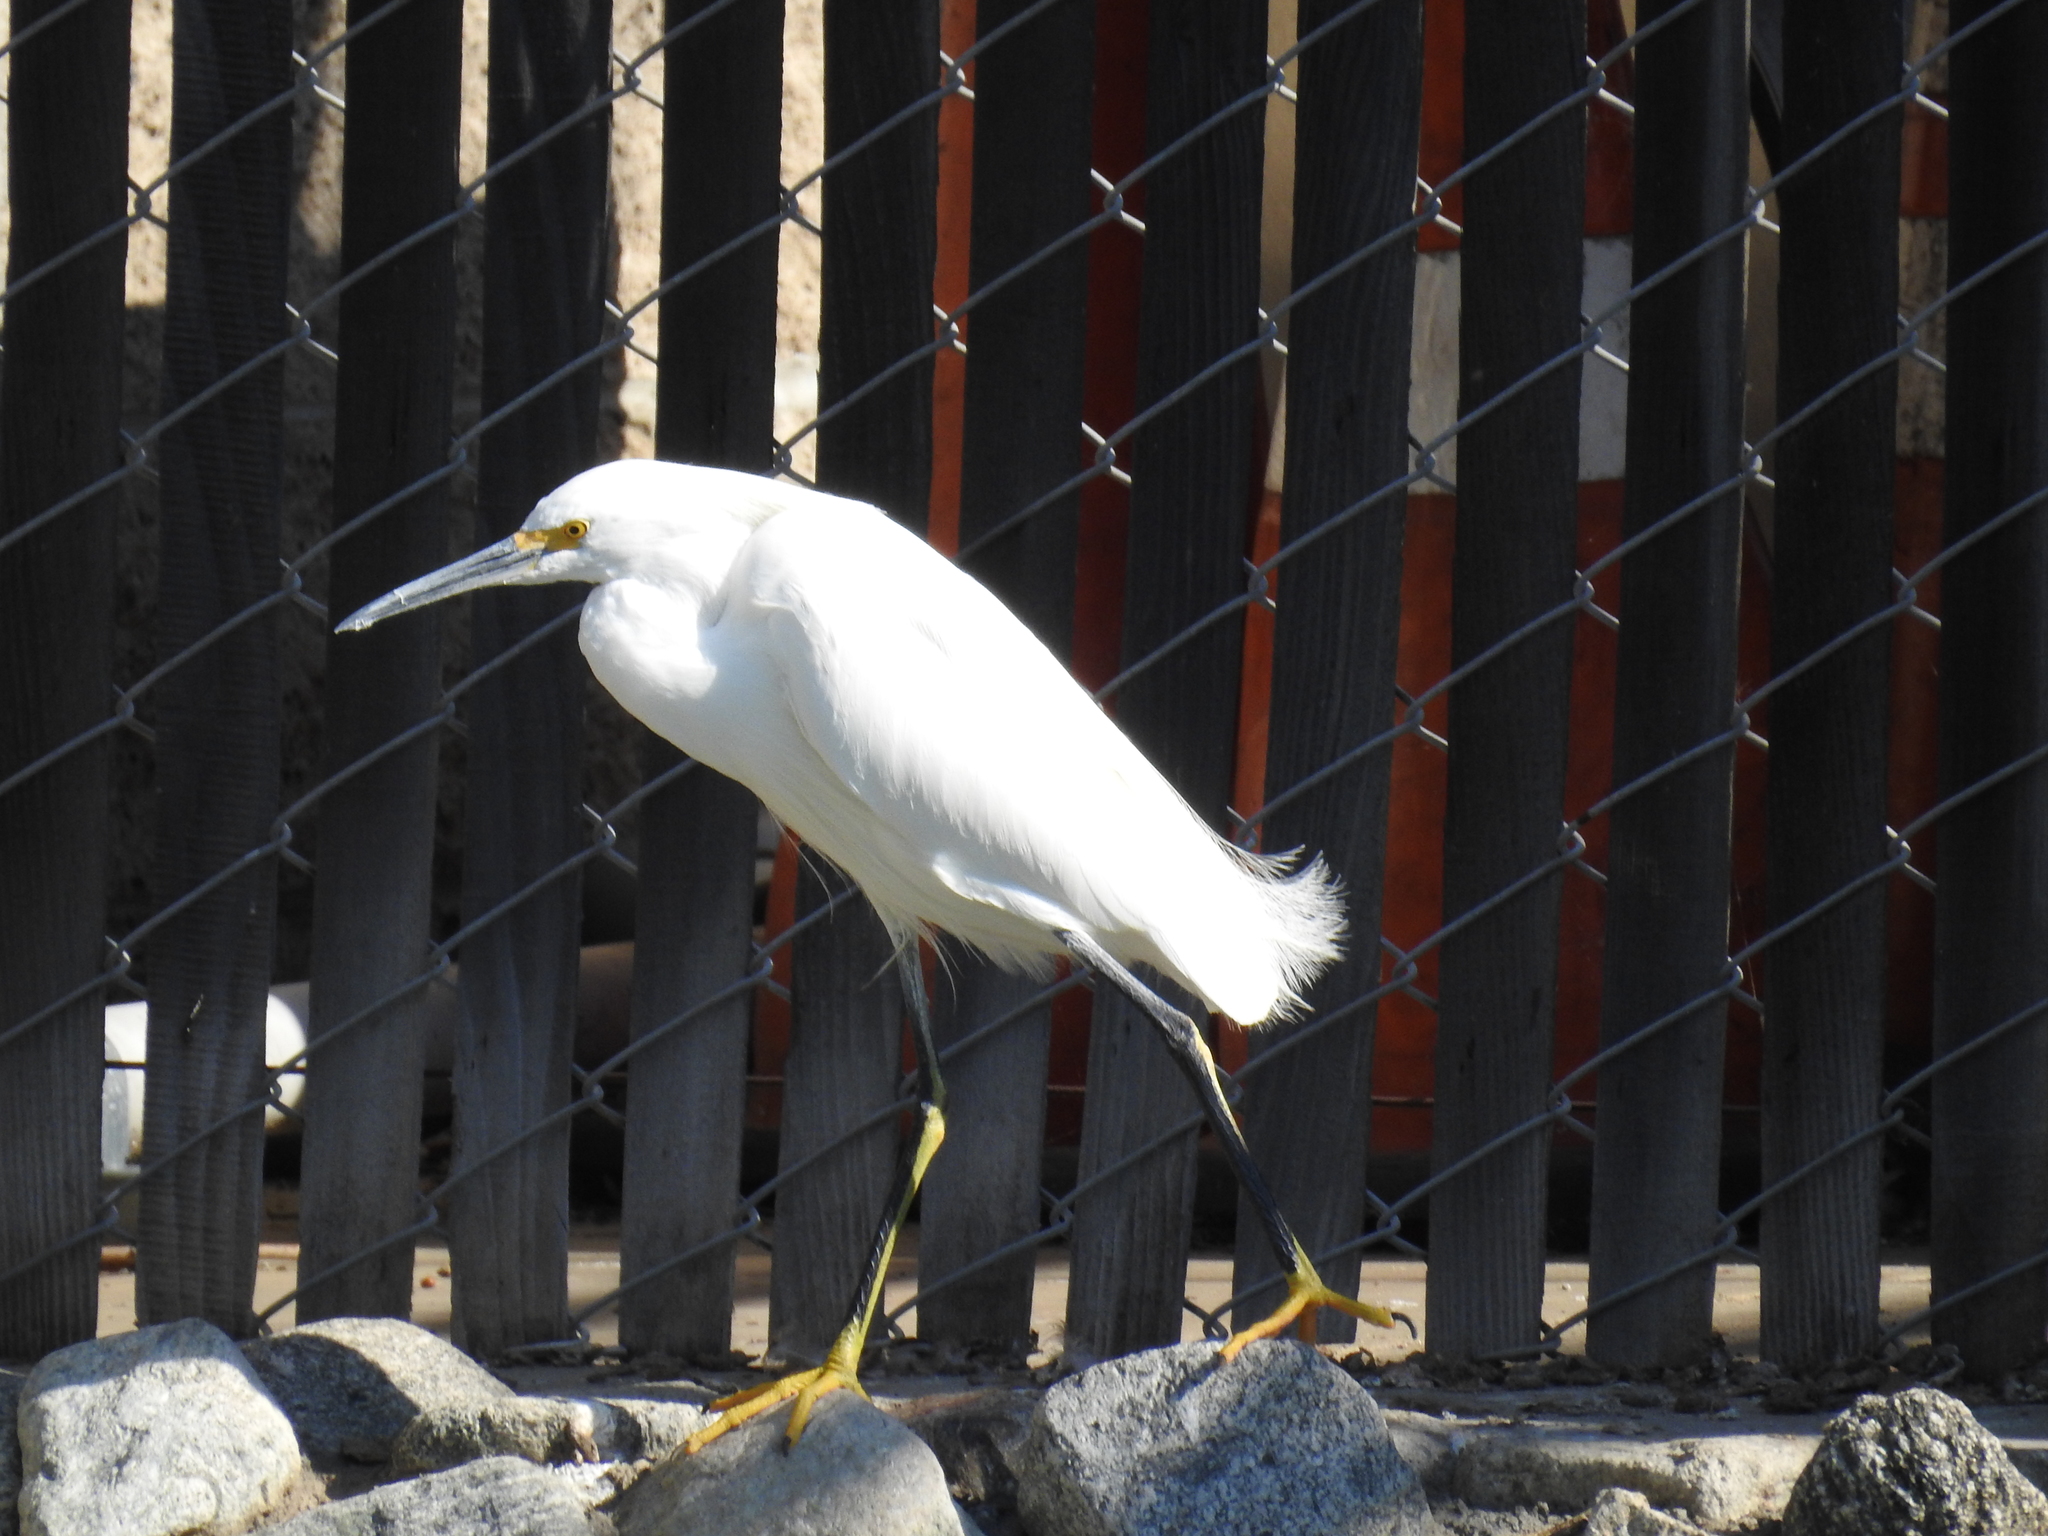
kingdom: Animalia
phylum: Chordata
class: Aves
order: Pelecaniformes
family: Ardeidae
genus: Egretta
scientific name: Egretta thula
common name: Snowy egret
